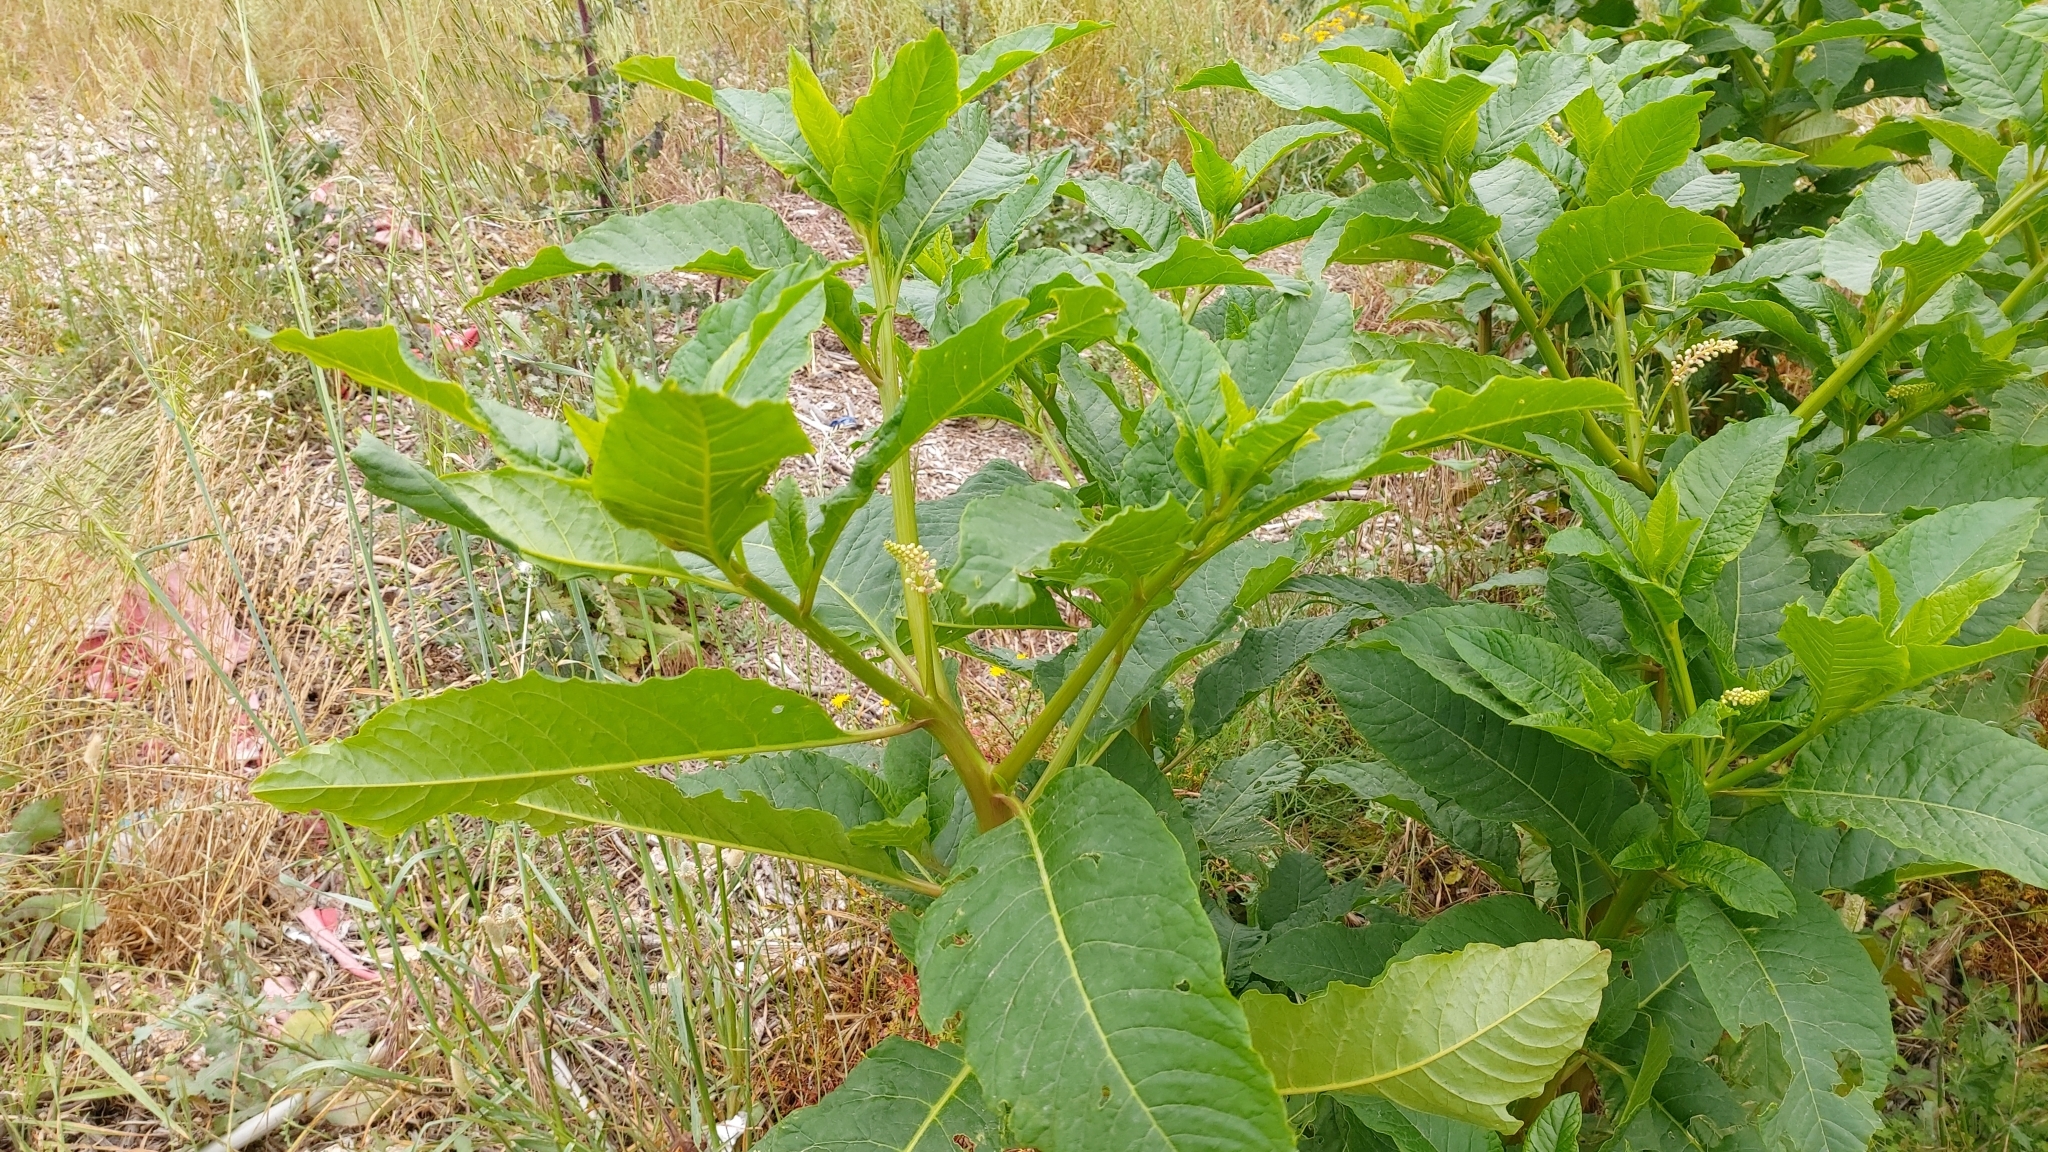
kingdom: Plantae
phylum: Tracheophyta
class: Magnoliopsida
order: Caryophyllales
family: Phytolaccaceae
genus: Phytolacca
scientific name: Phytolacca americana
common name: American pokeweed
